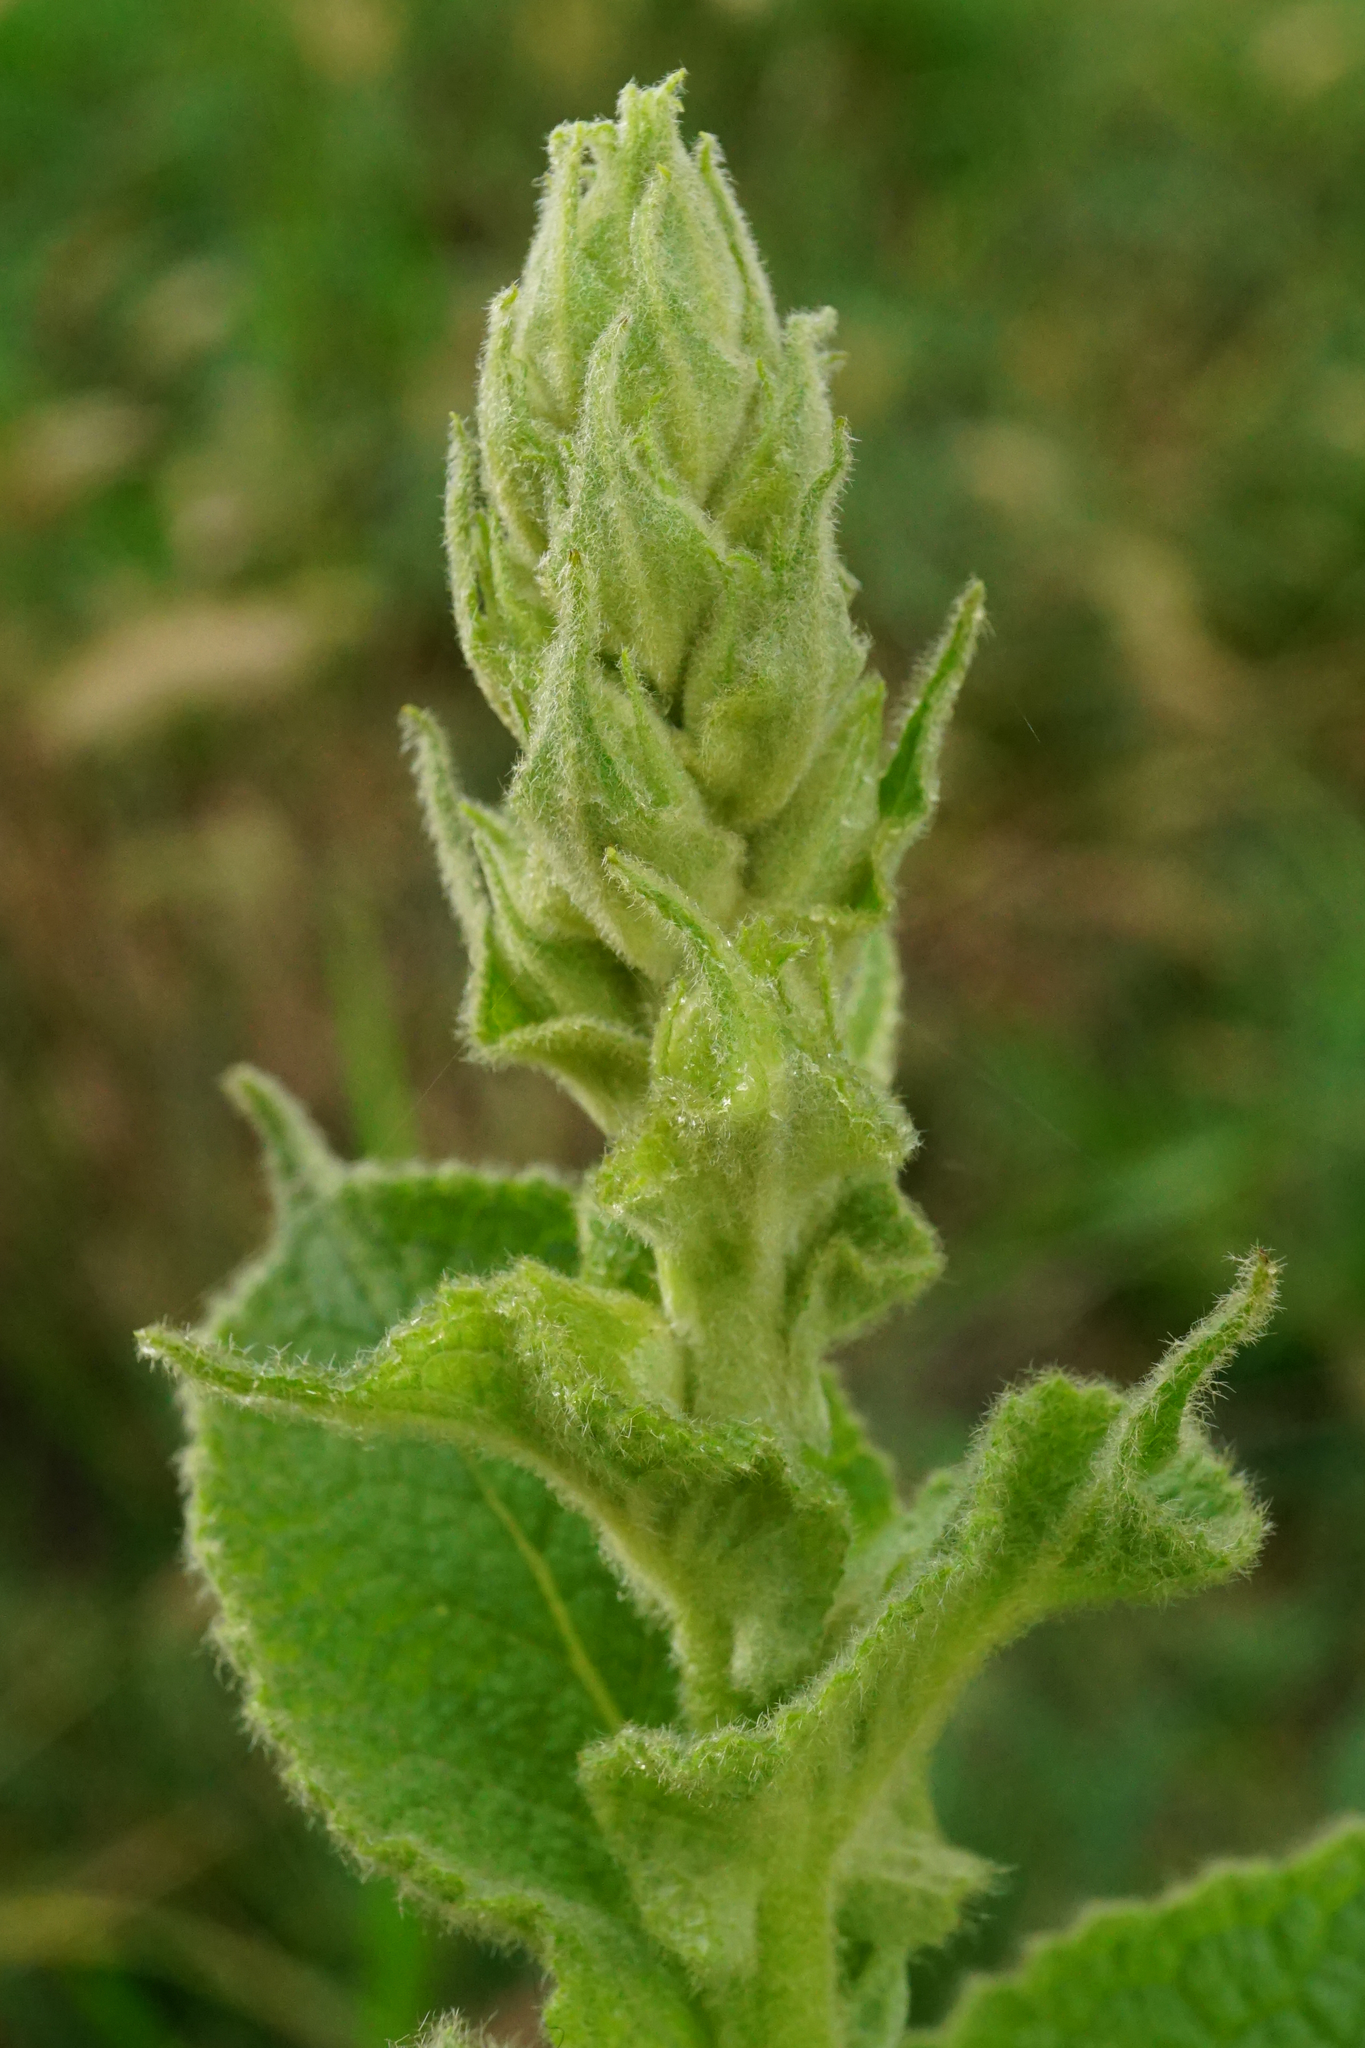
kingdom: Plantae
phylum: Tracheophyta
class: Magnoliopsida
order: Lamiales
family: Scrophulariaceae
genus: Verbascum
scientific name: Verbascum phlomoides
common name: Orange mullein
